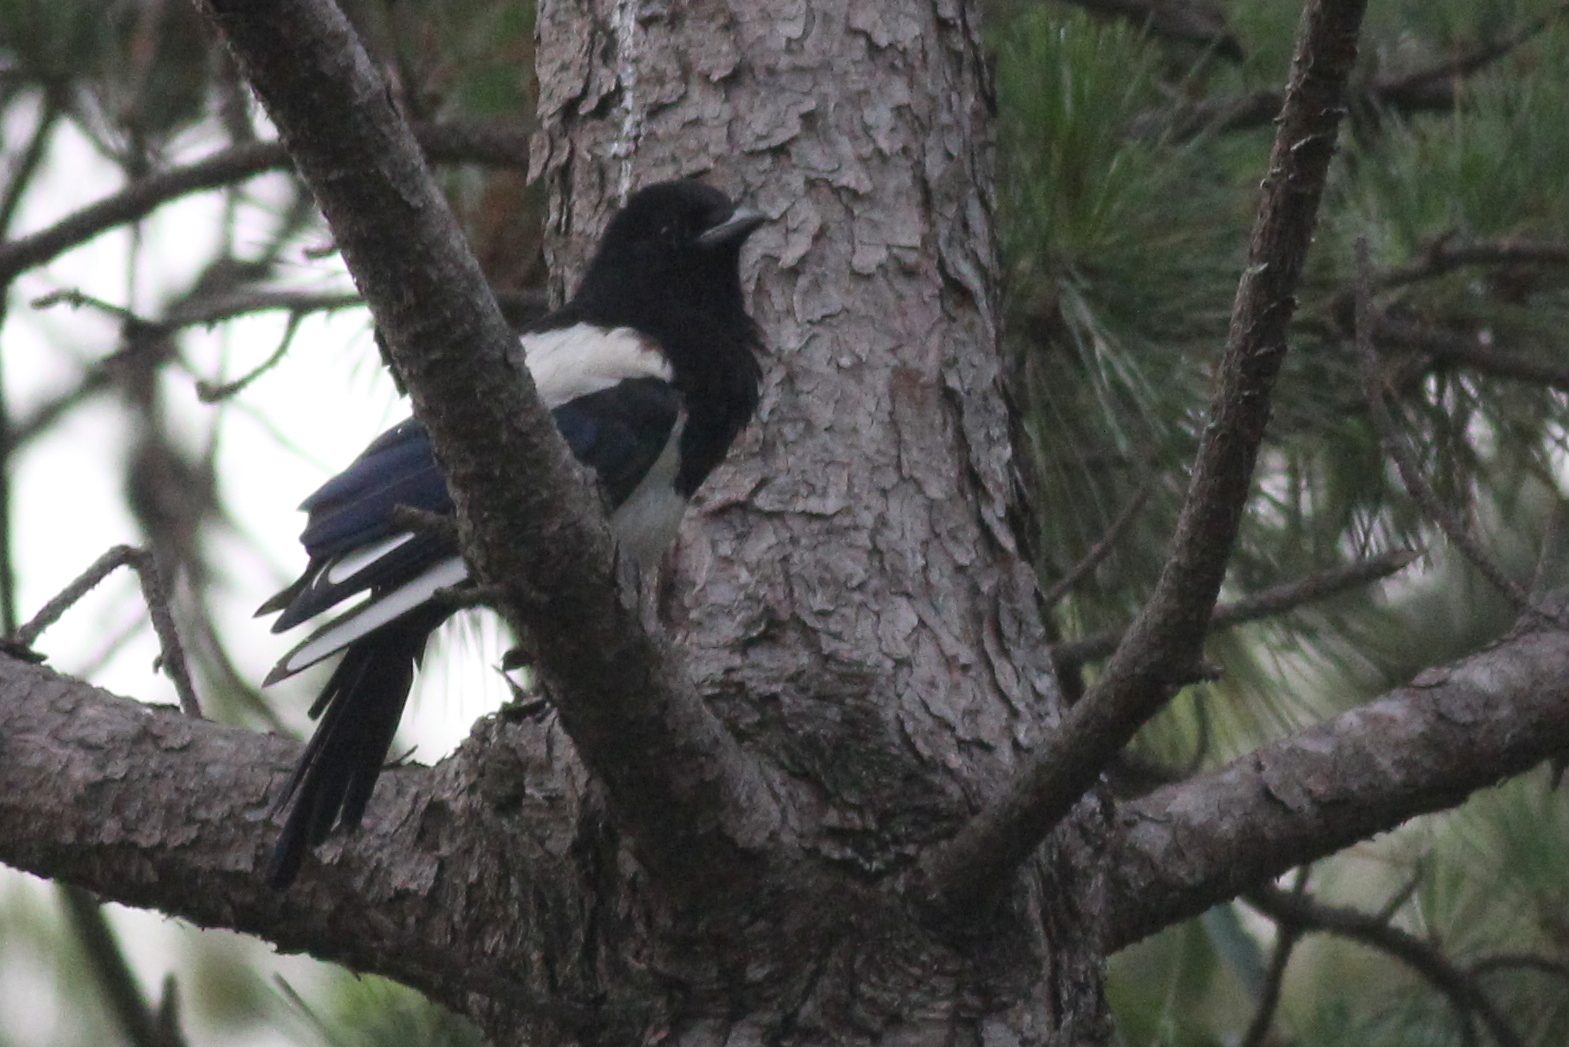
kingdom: Animalia
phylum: Chordata
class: Aves
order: Passeriformes
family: Corvidae
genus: Pica
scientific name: Pica serica
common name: Oriental magpie
